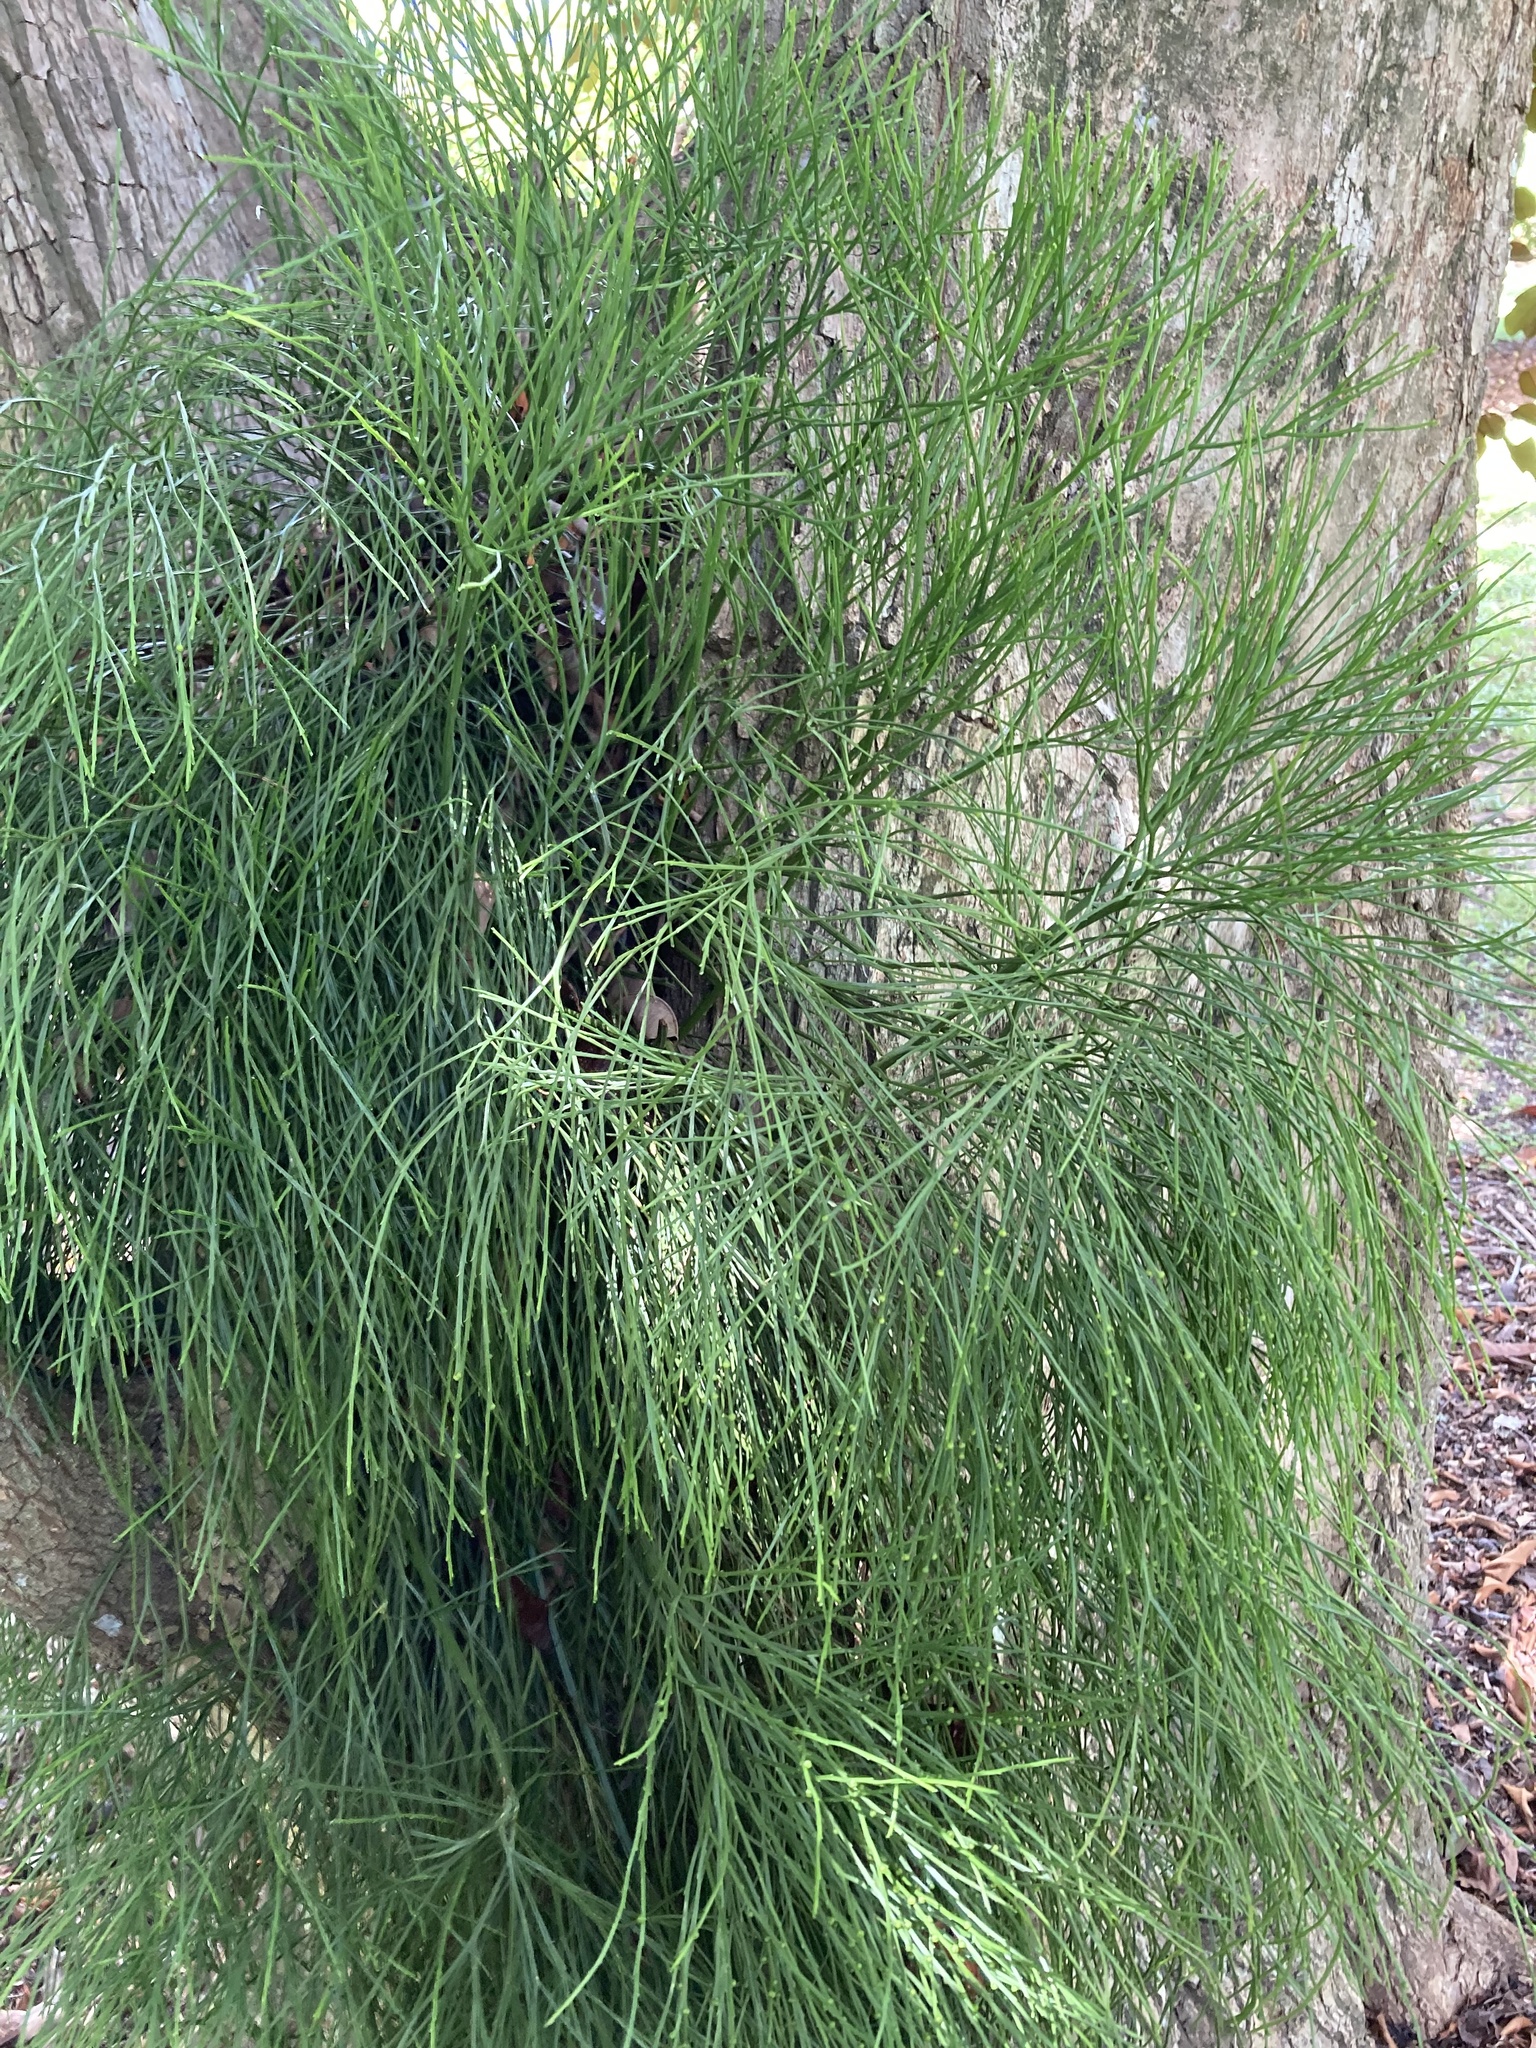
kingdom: Plantae
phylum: Tracheophyta
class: Polypodiopsida
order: Psilotales
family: Psilotaceae
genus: Psilotum
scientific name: Psilotum nudum
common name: Skeleton fork fern
